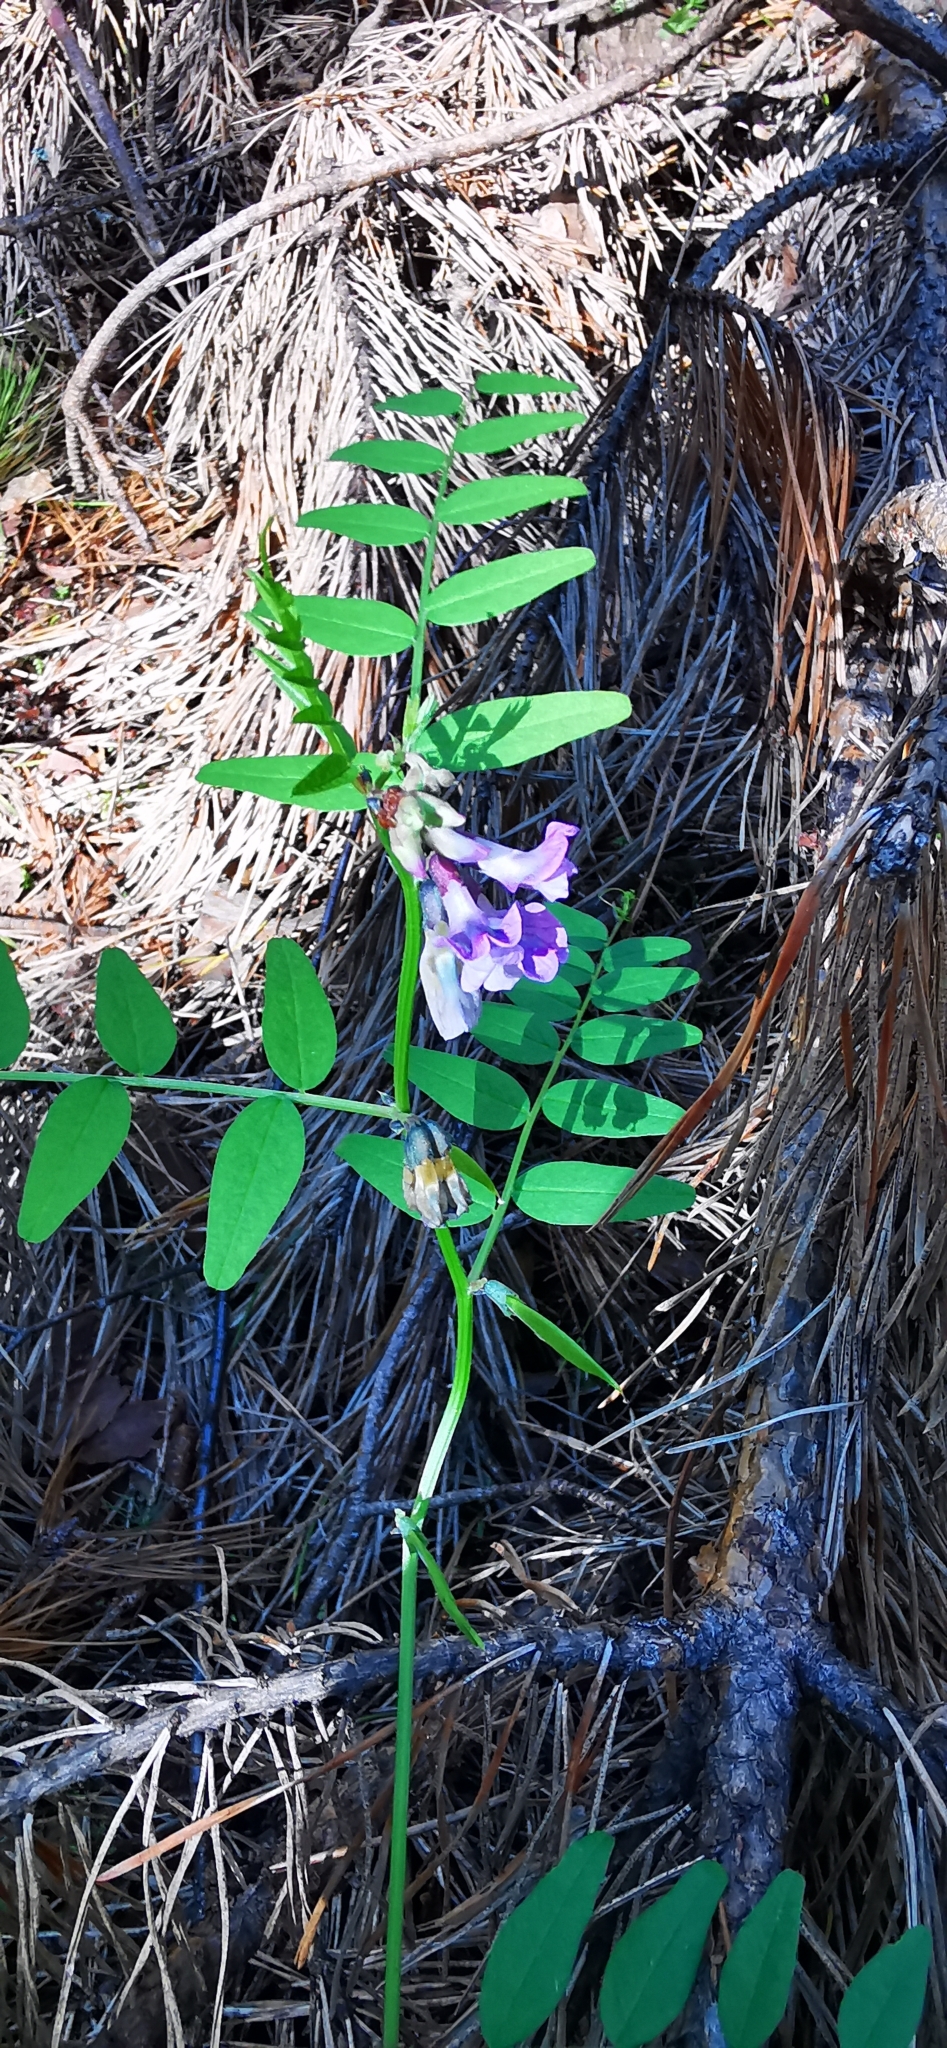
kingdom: Plantae
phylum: Tracheophyta
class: Magnoliopsida
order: Fabales
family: Fabaceae
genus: Vicia
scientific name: Vicia sepium
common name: Bush vetch
